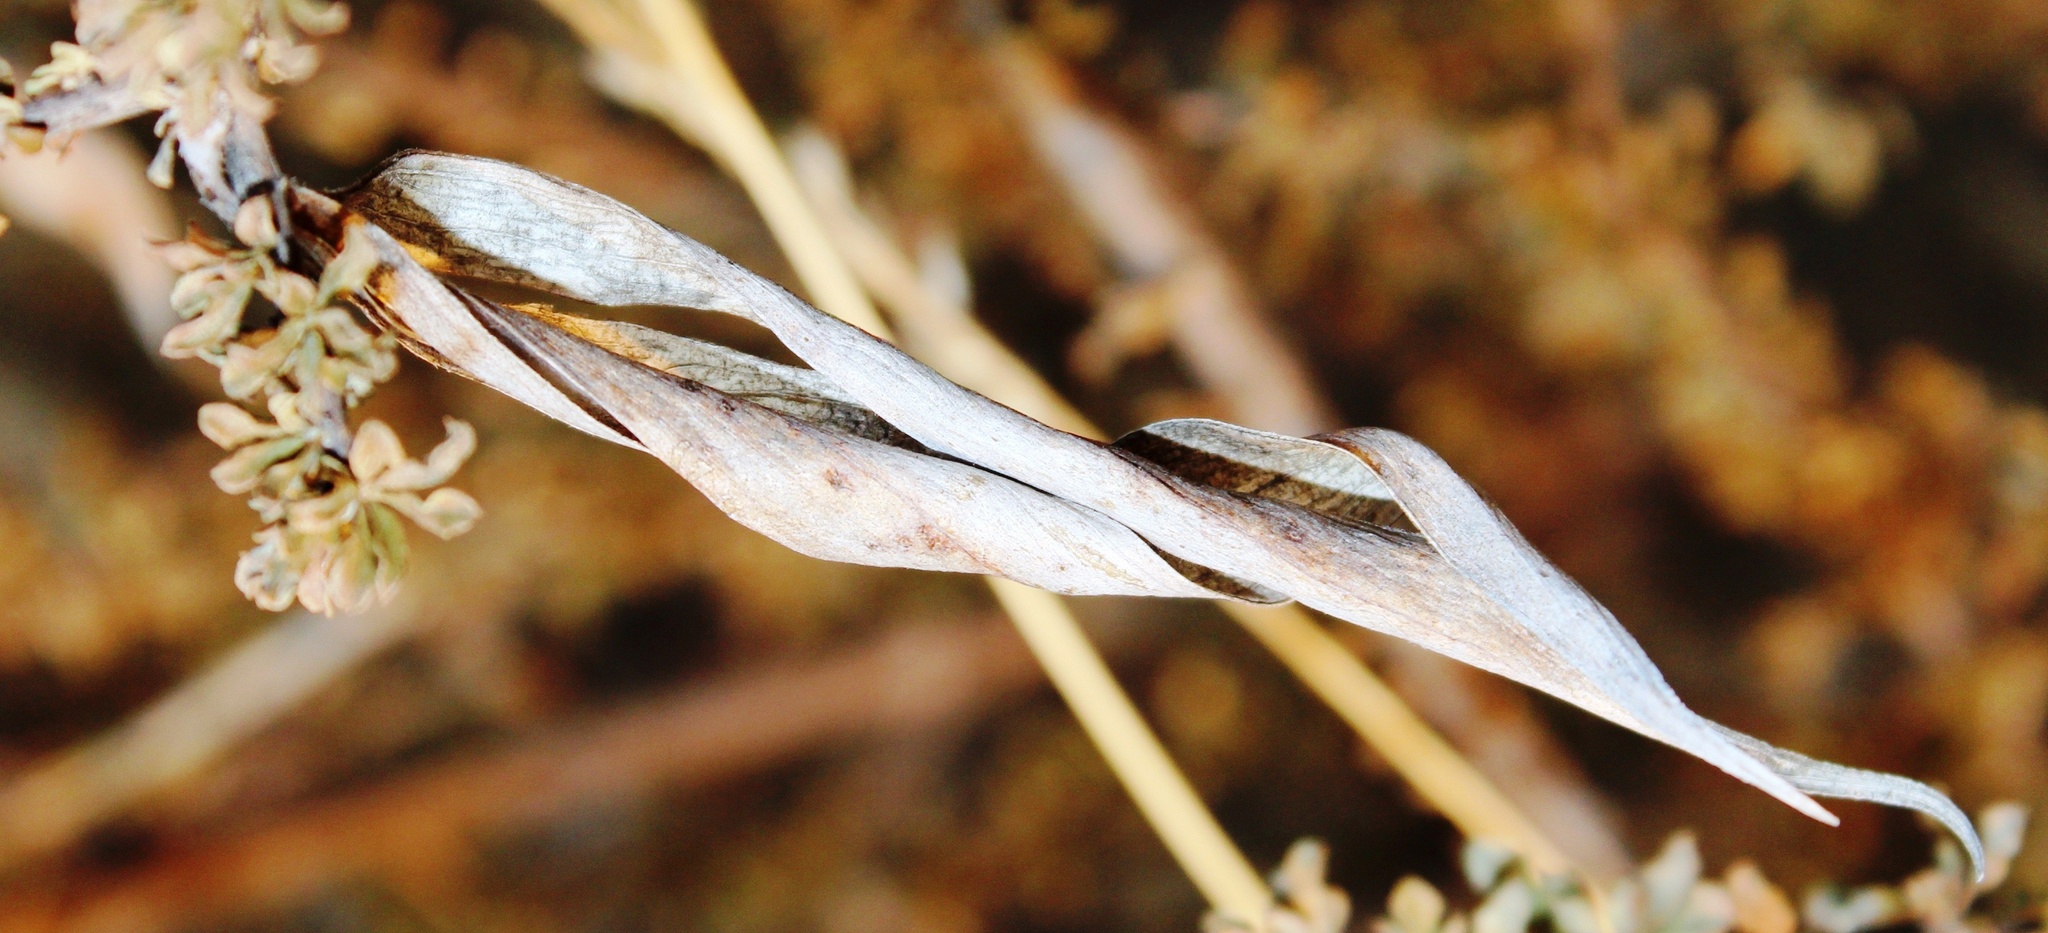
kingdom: Plantae
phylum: Tracheophyta
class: Magnoliopsida
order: Lamiales
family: Bignoniaceae
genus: Rhigozum
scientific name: Rhigozum trichotomum
